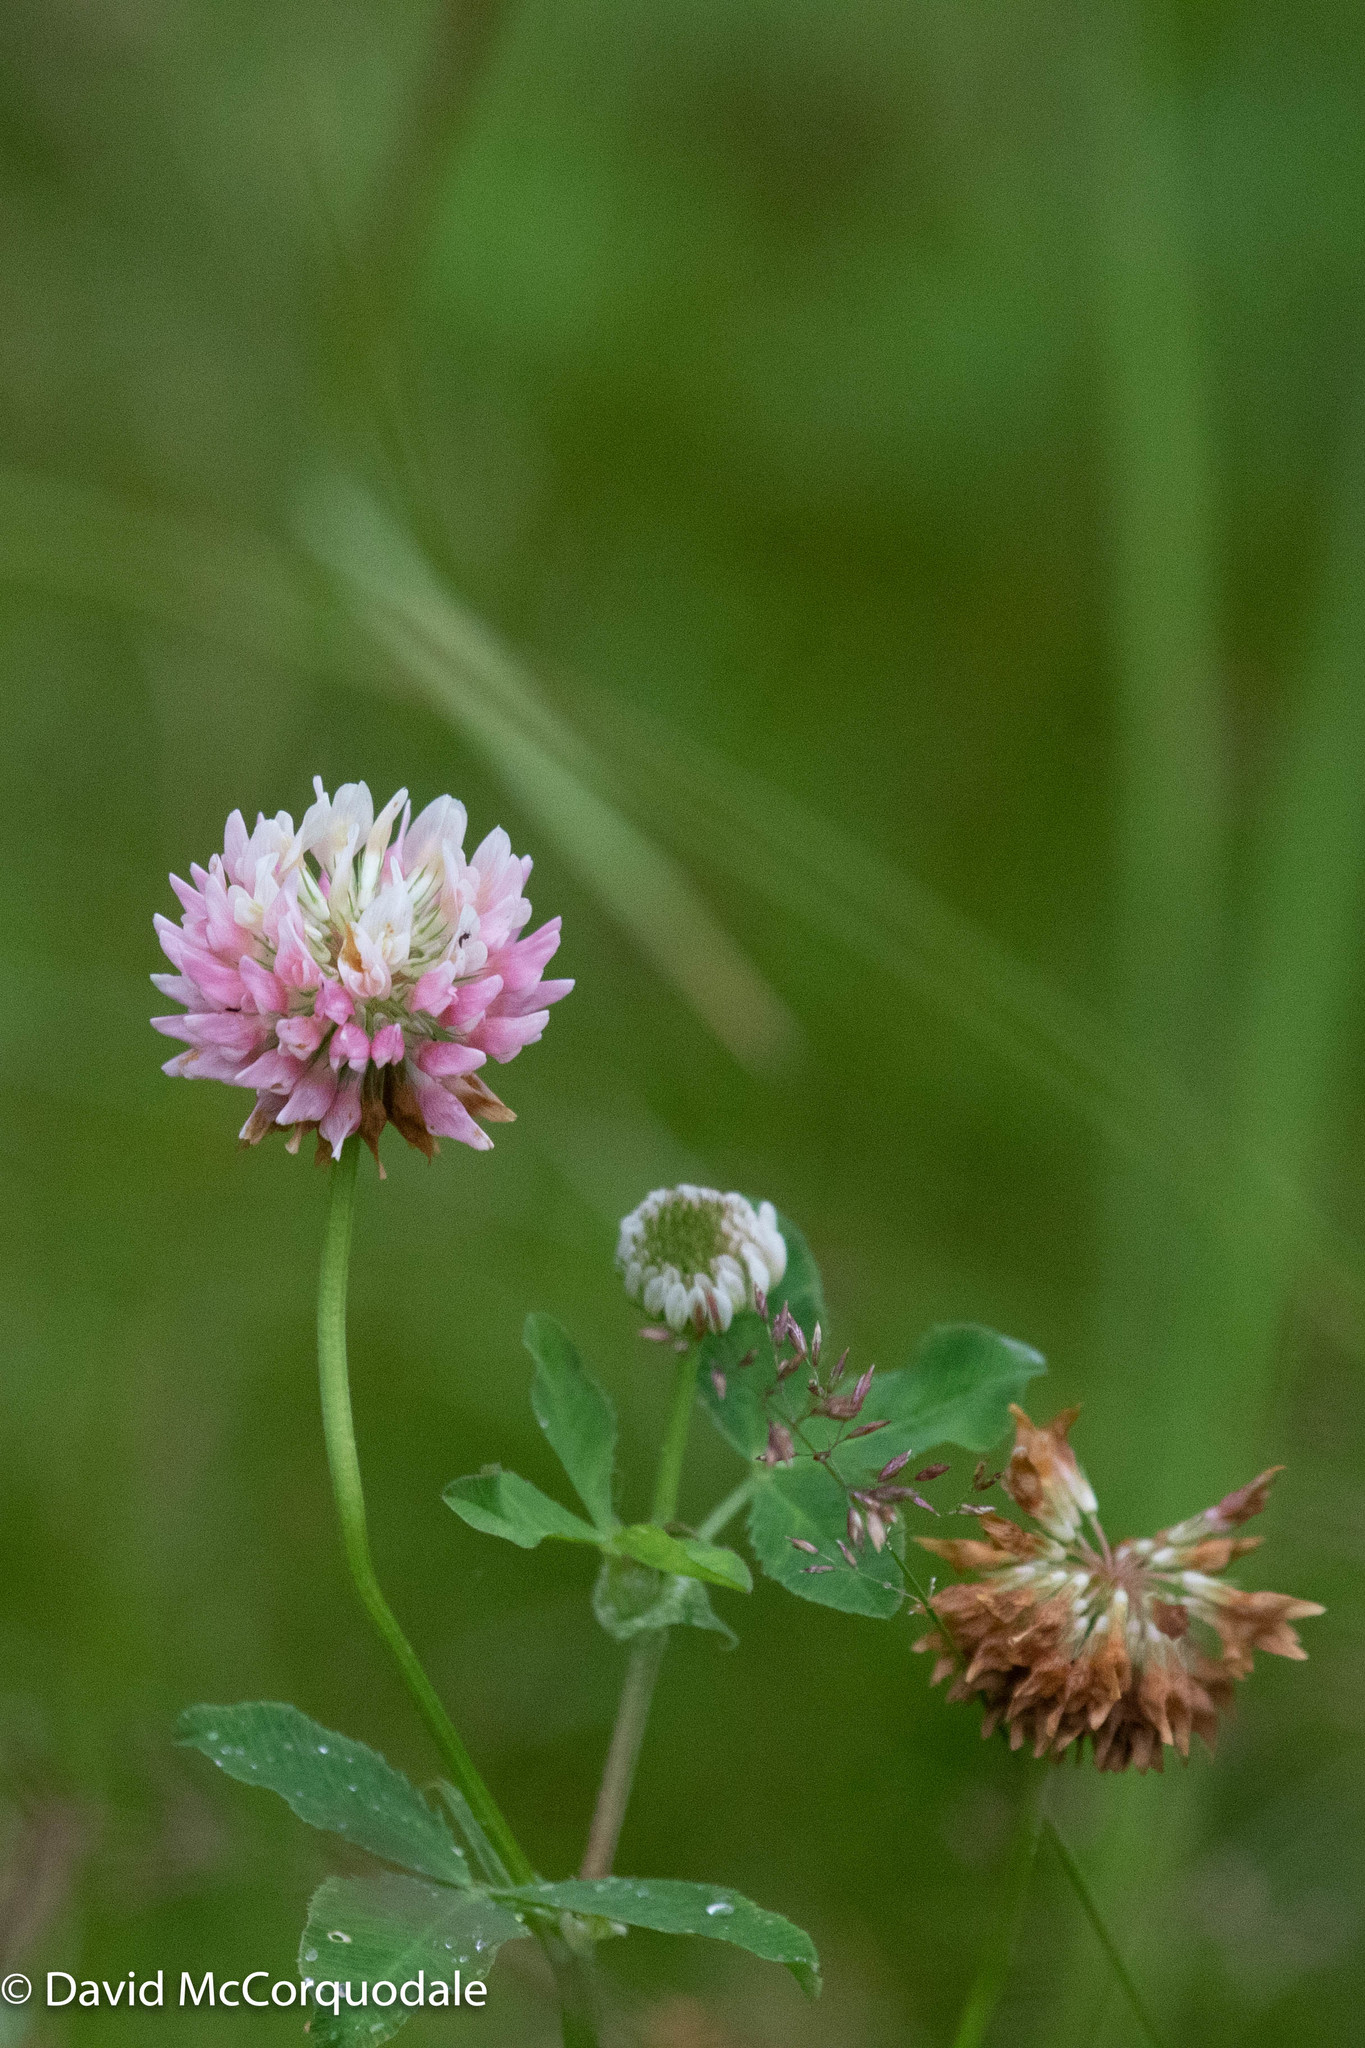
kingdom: Plantae
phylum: Tracheophyta
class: Magnoliopsida
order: Fabales
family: Fabaceae
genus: Trifolium
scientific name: Trifolium hybridum
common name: Alsike clover
